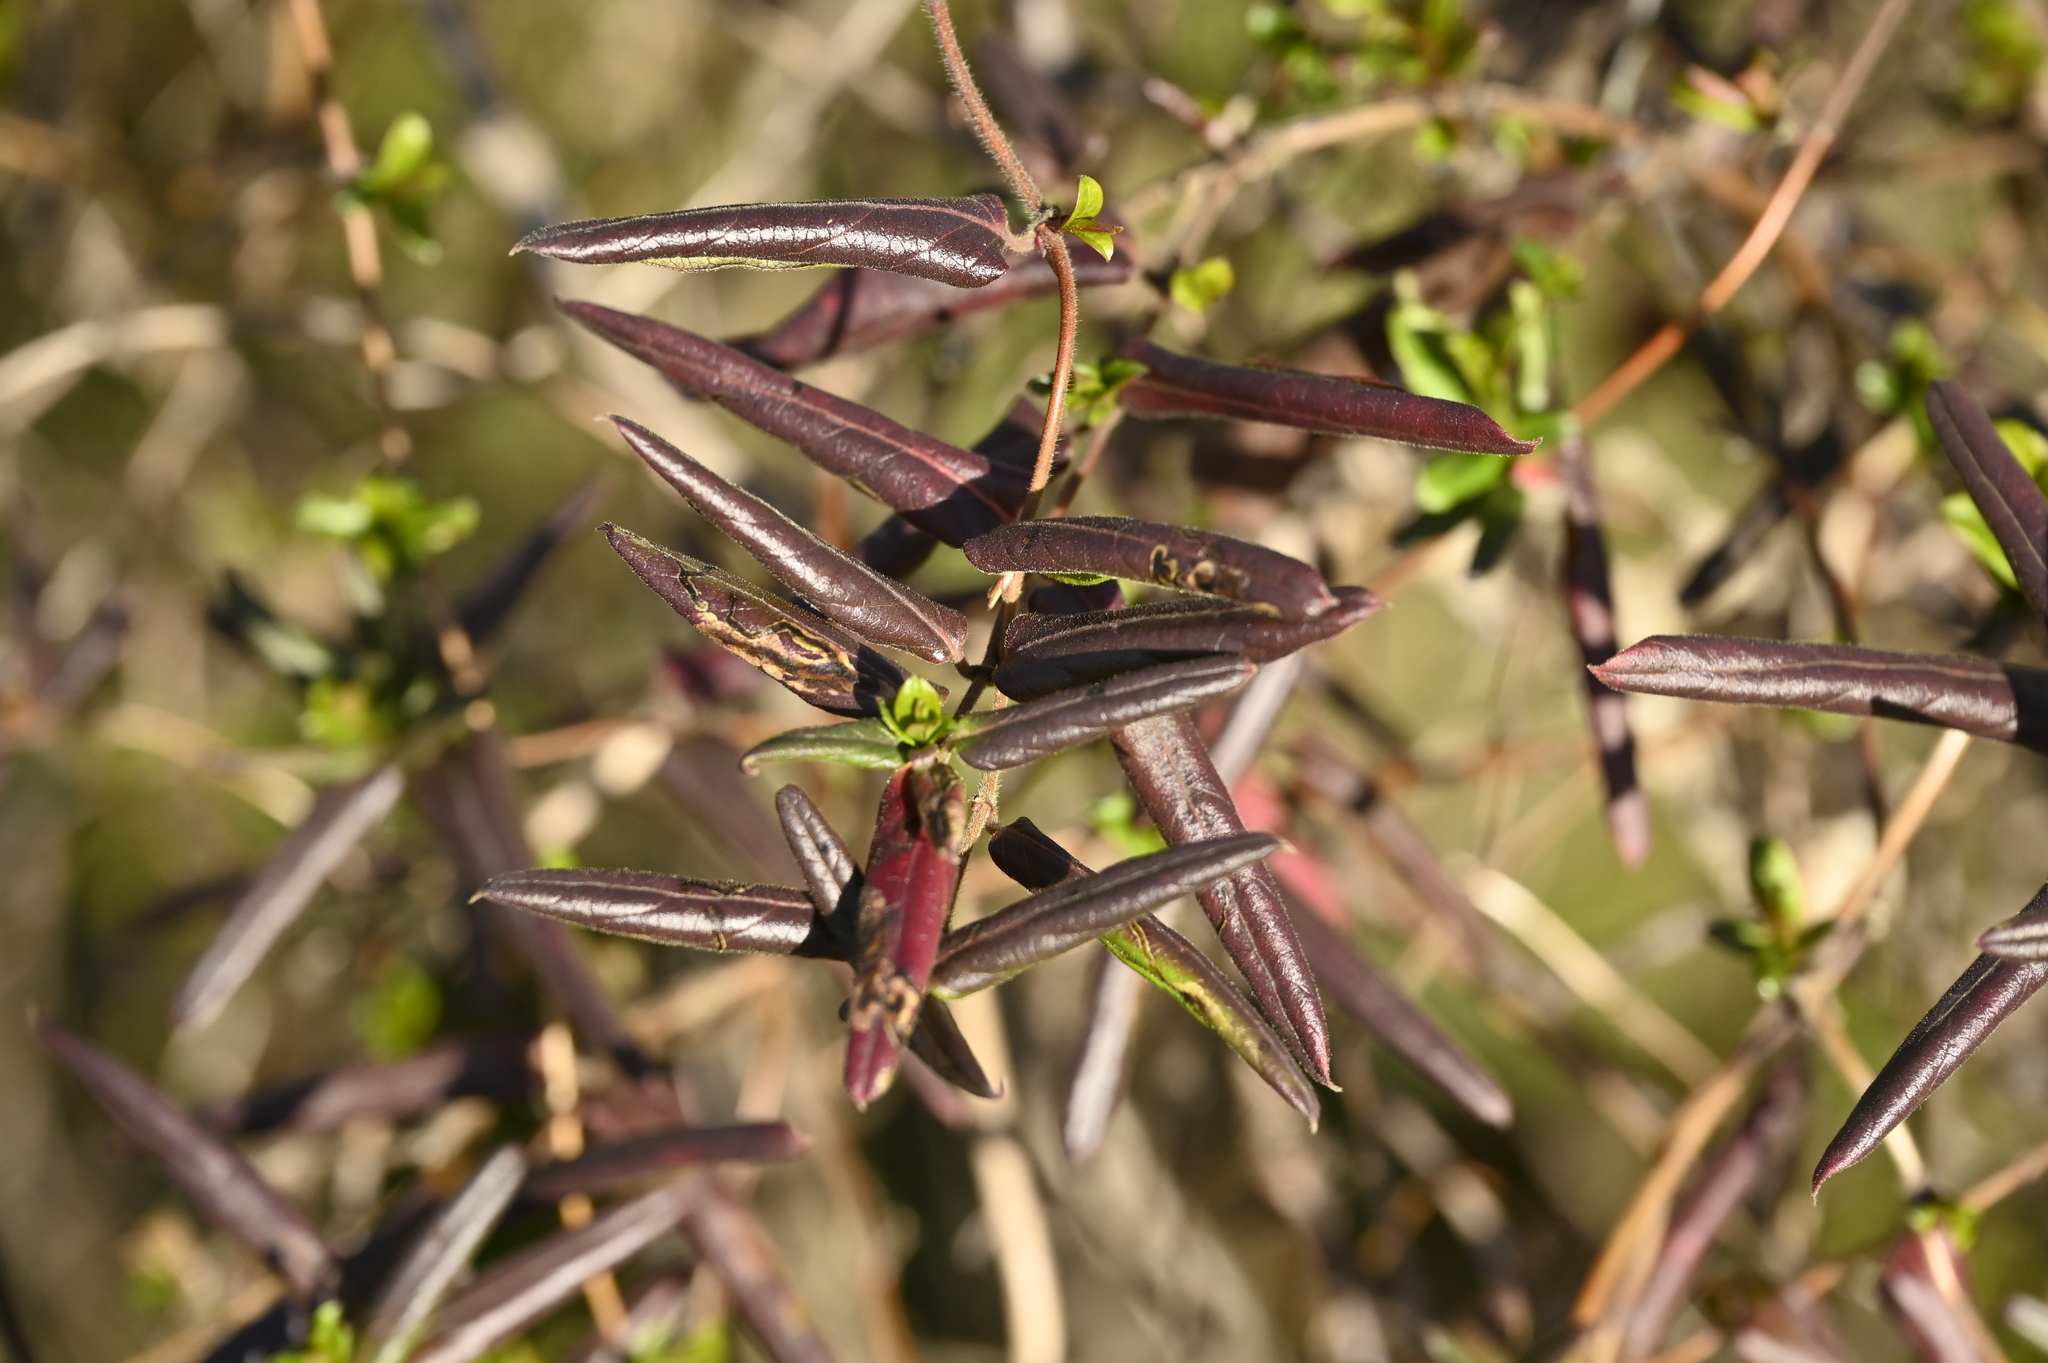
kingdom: Plantae
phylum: Tracheophyta
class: Magnoliopsida
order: Dipsacales
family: Caprifoliaceae
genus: Lonicera
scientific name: Lonicera japonica
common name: Japanese honeysuckle
